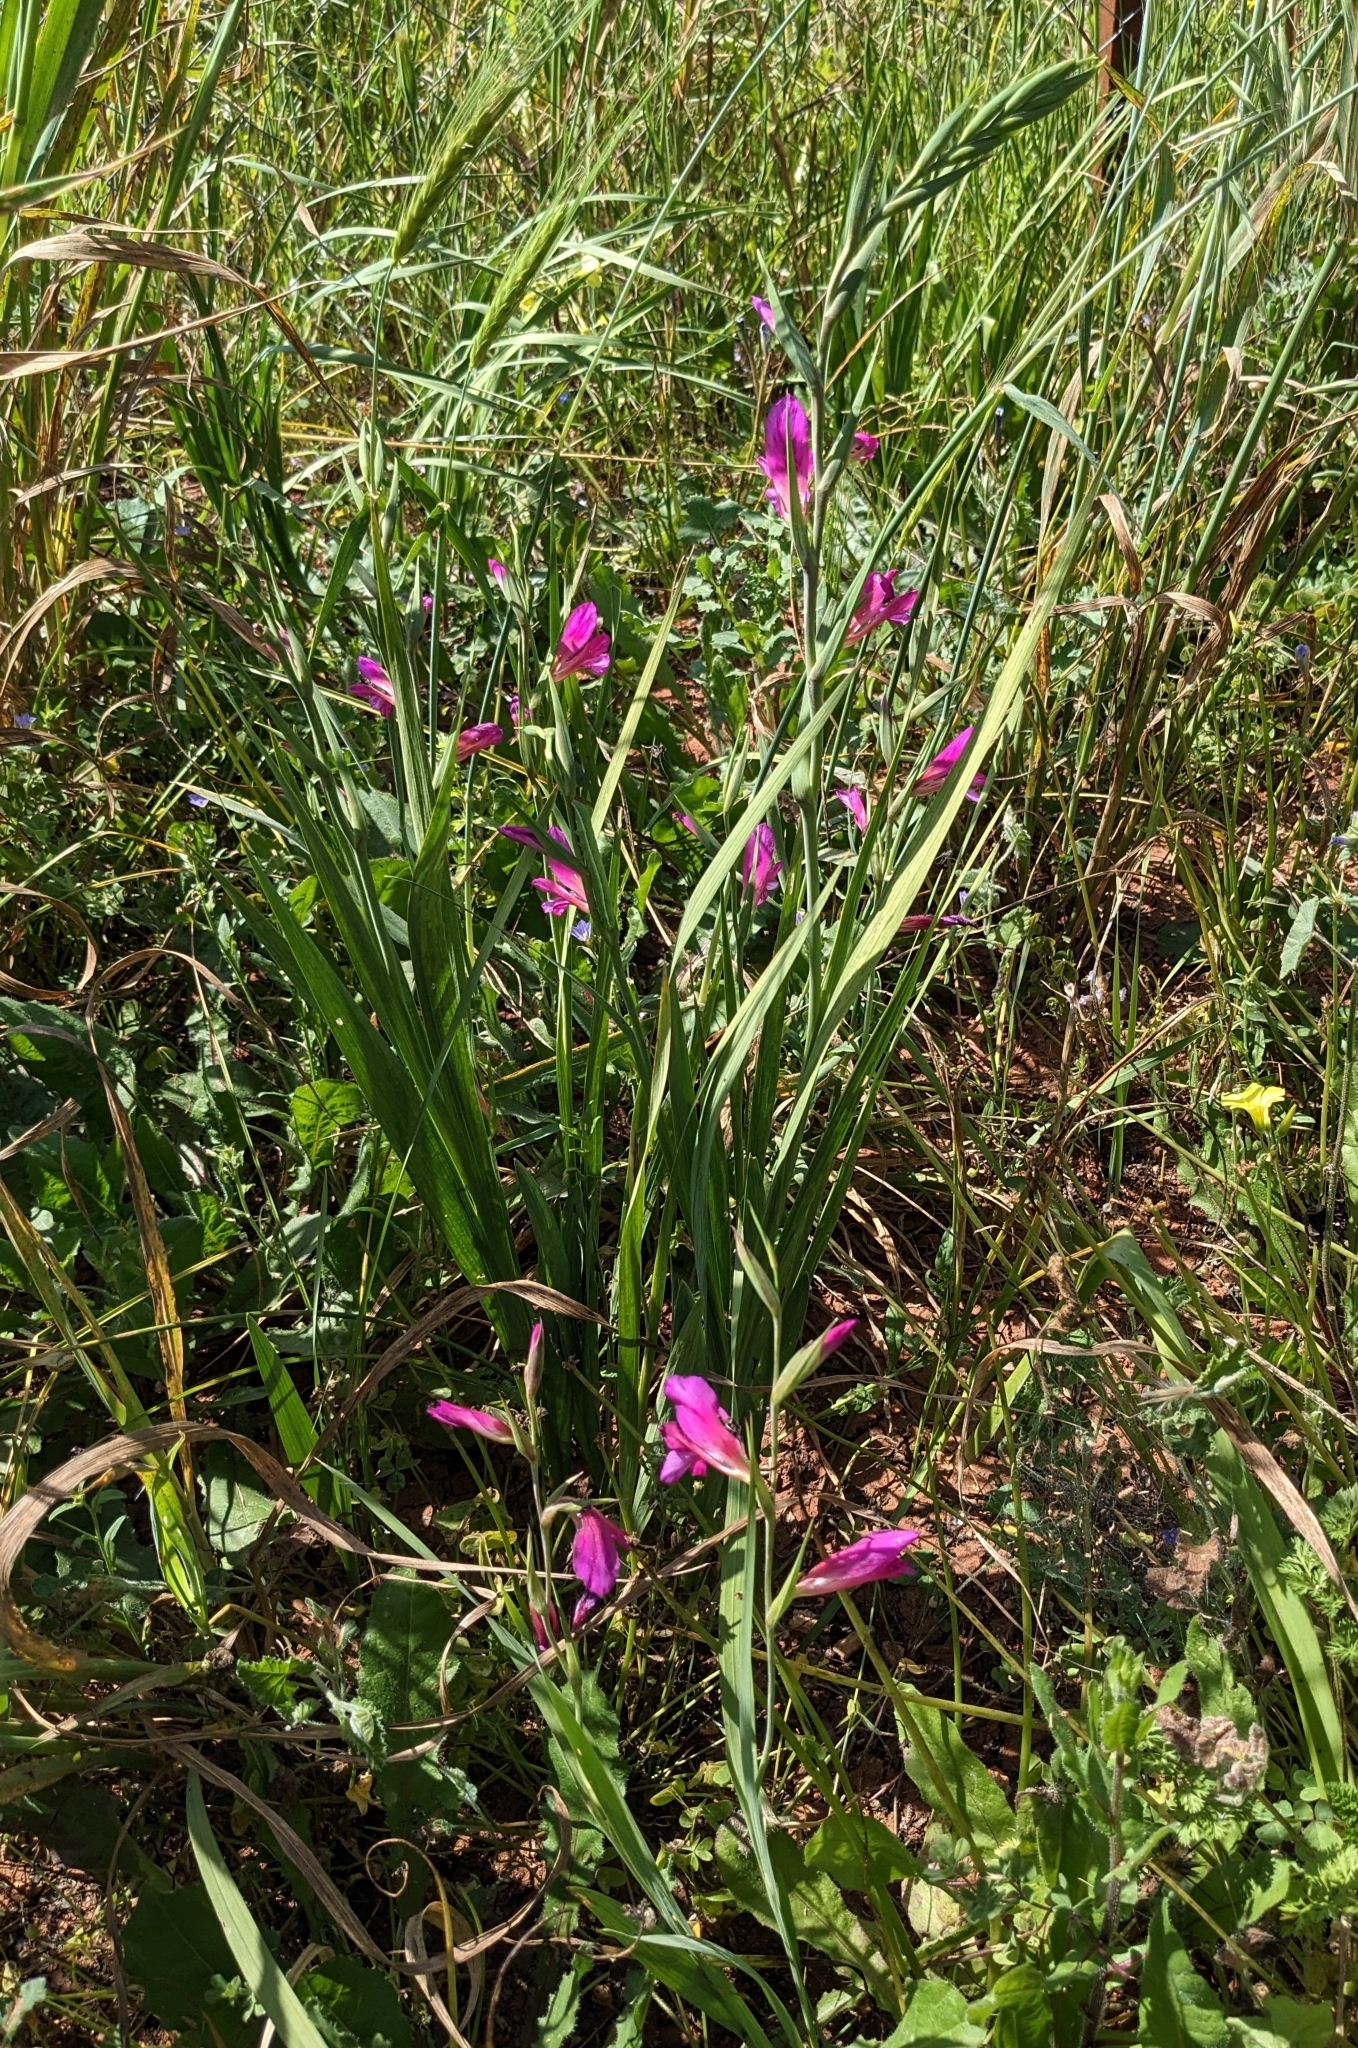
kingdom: Plantae
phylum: Tracheophyta
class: Liliopsida
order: Asparagales
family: Iridaceae
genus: Gladiolus
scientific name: Gladiolus italicus
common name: Field gladiolus
